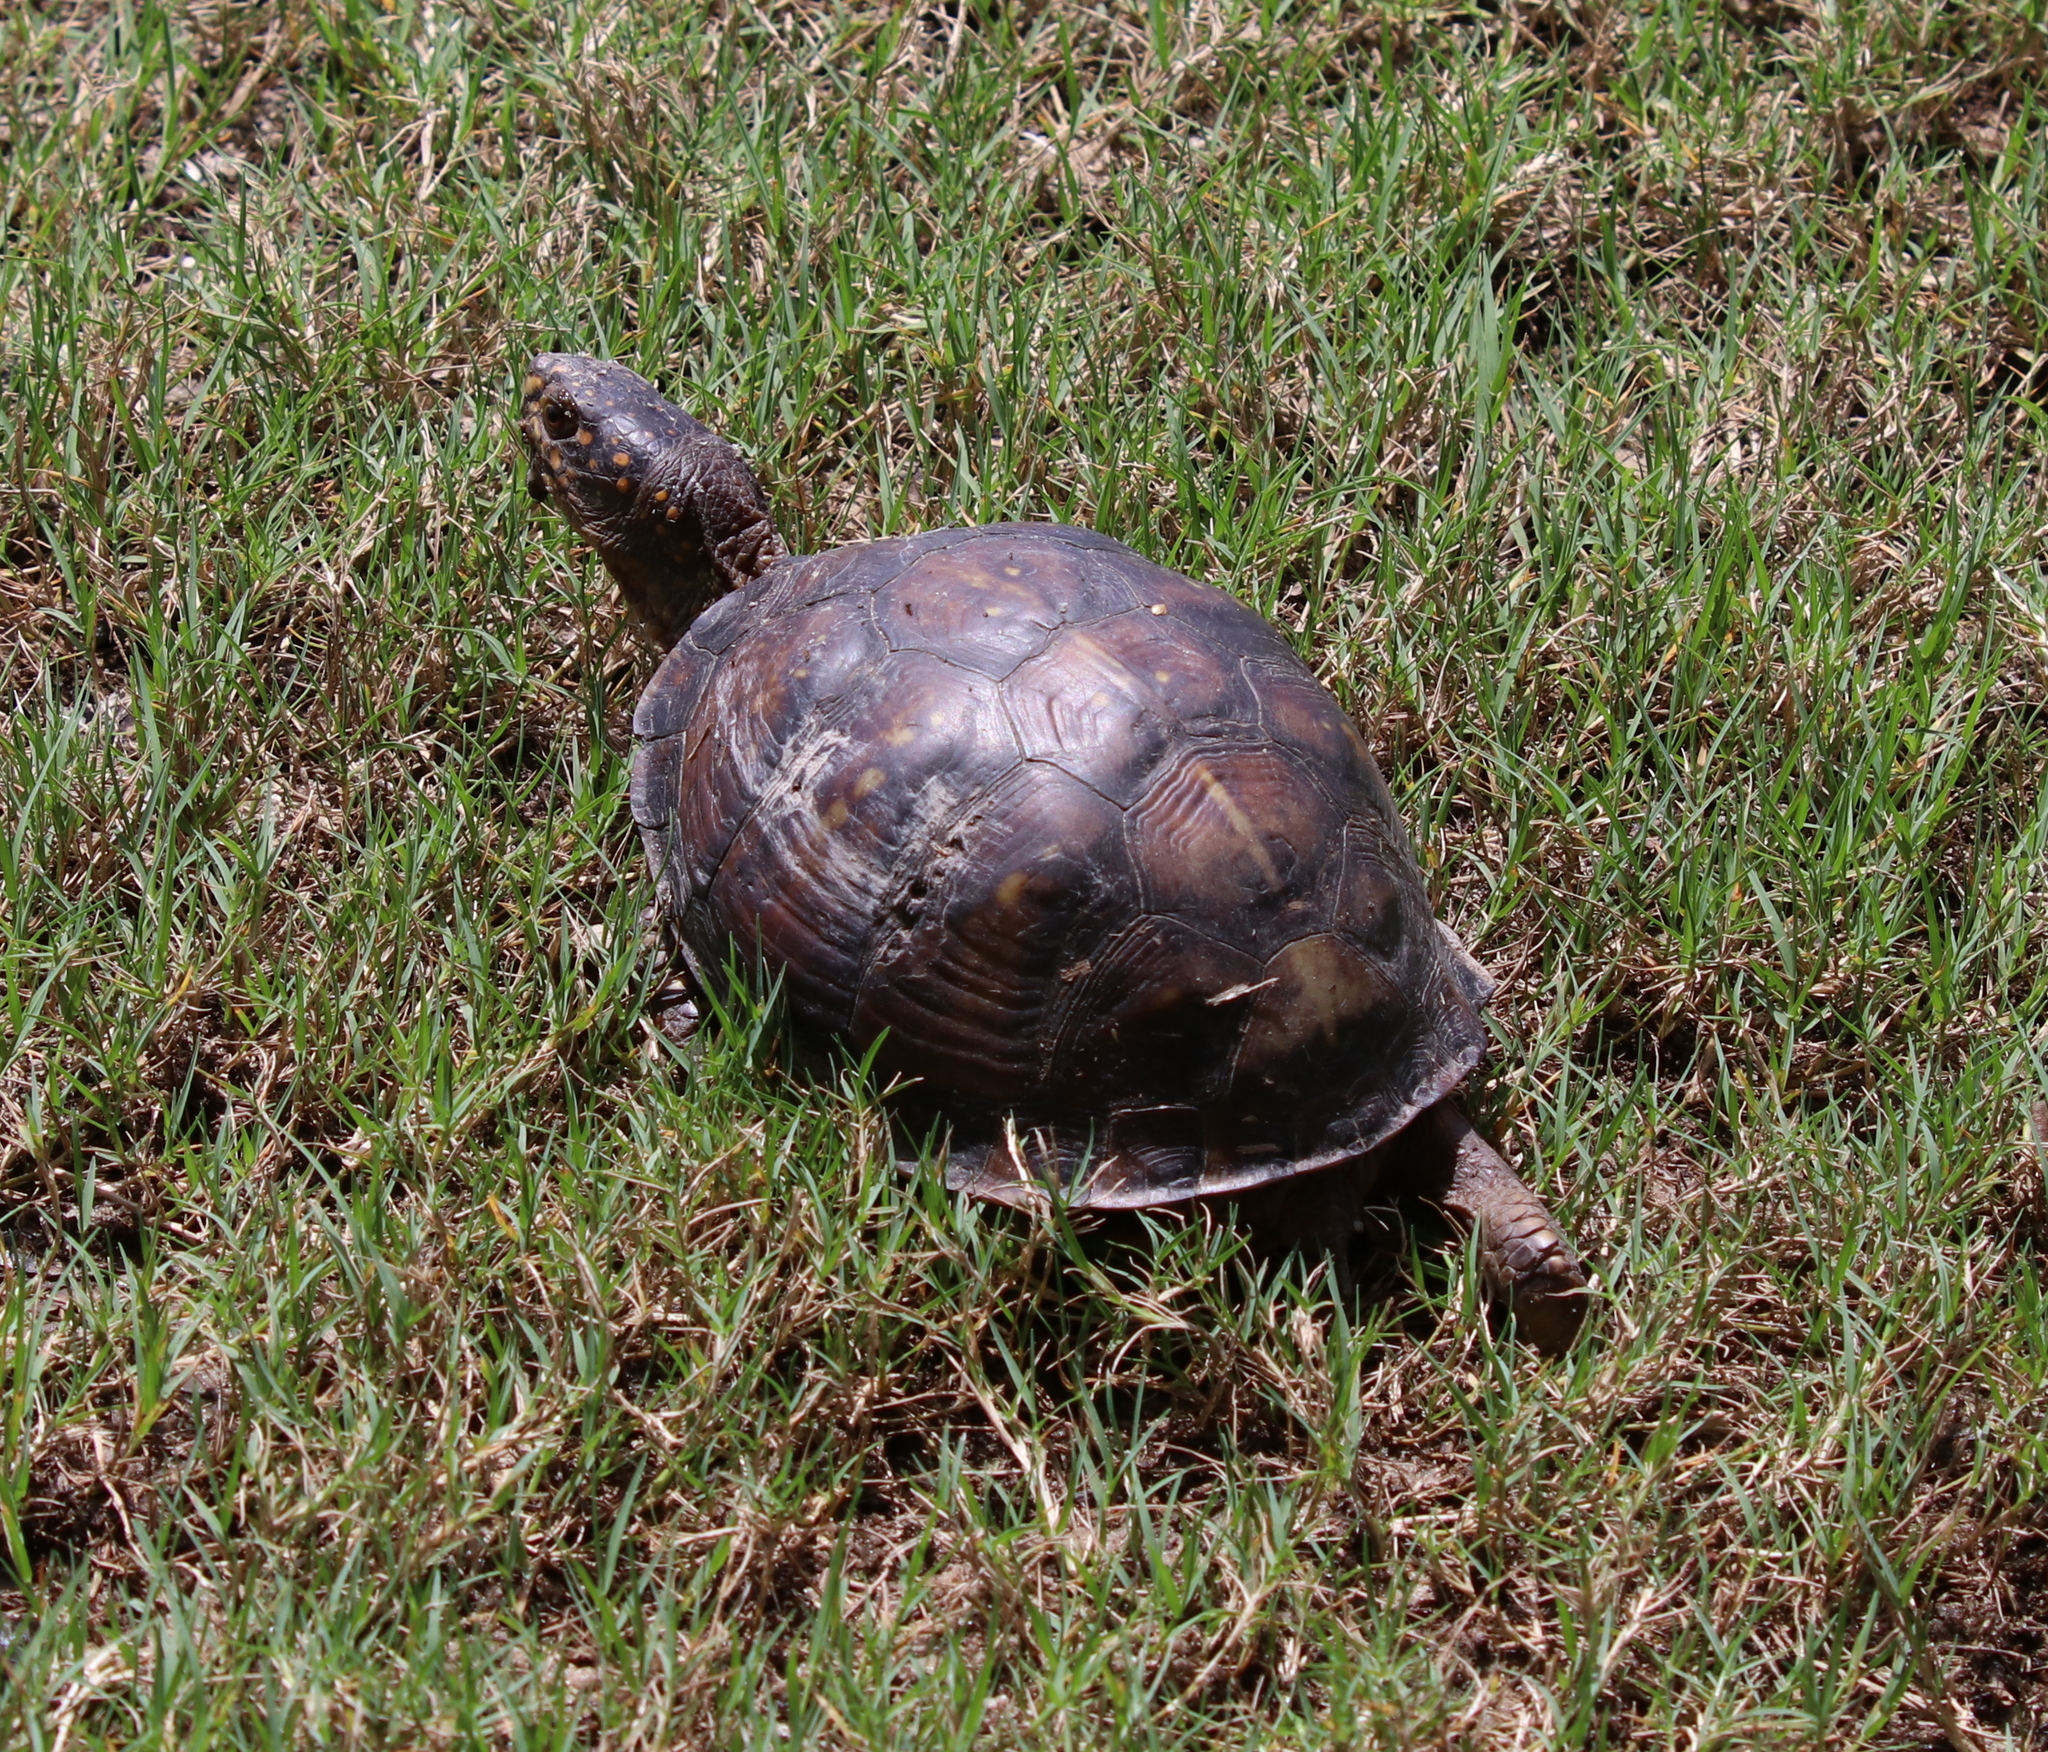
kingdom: Animalia
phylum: Chordata
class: Testudines
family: Emydidae
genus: Terrapene
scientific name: Terrapene carolina
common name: Common box turtle
